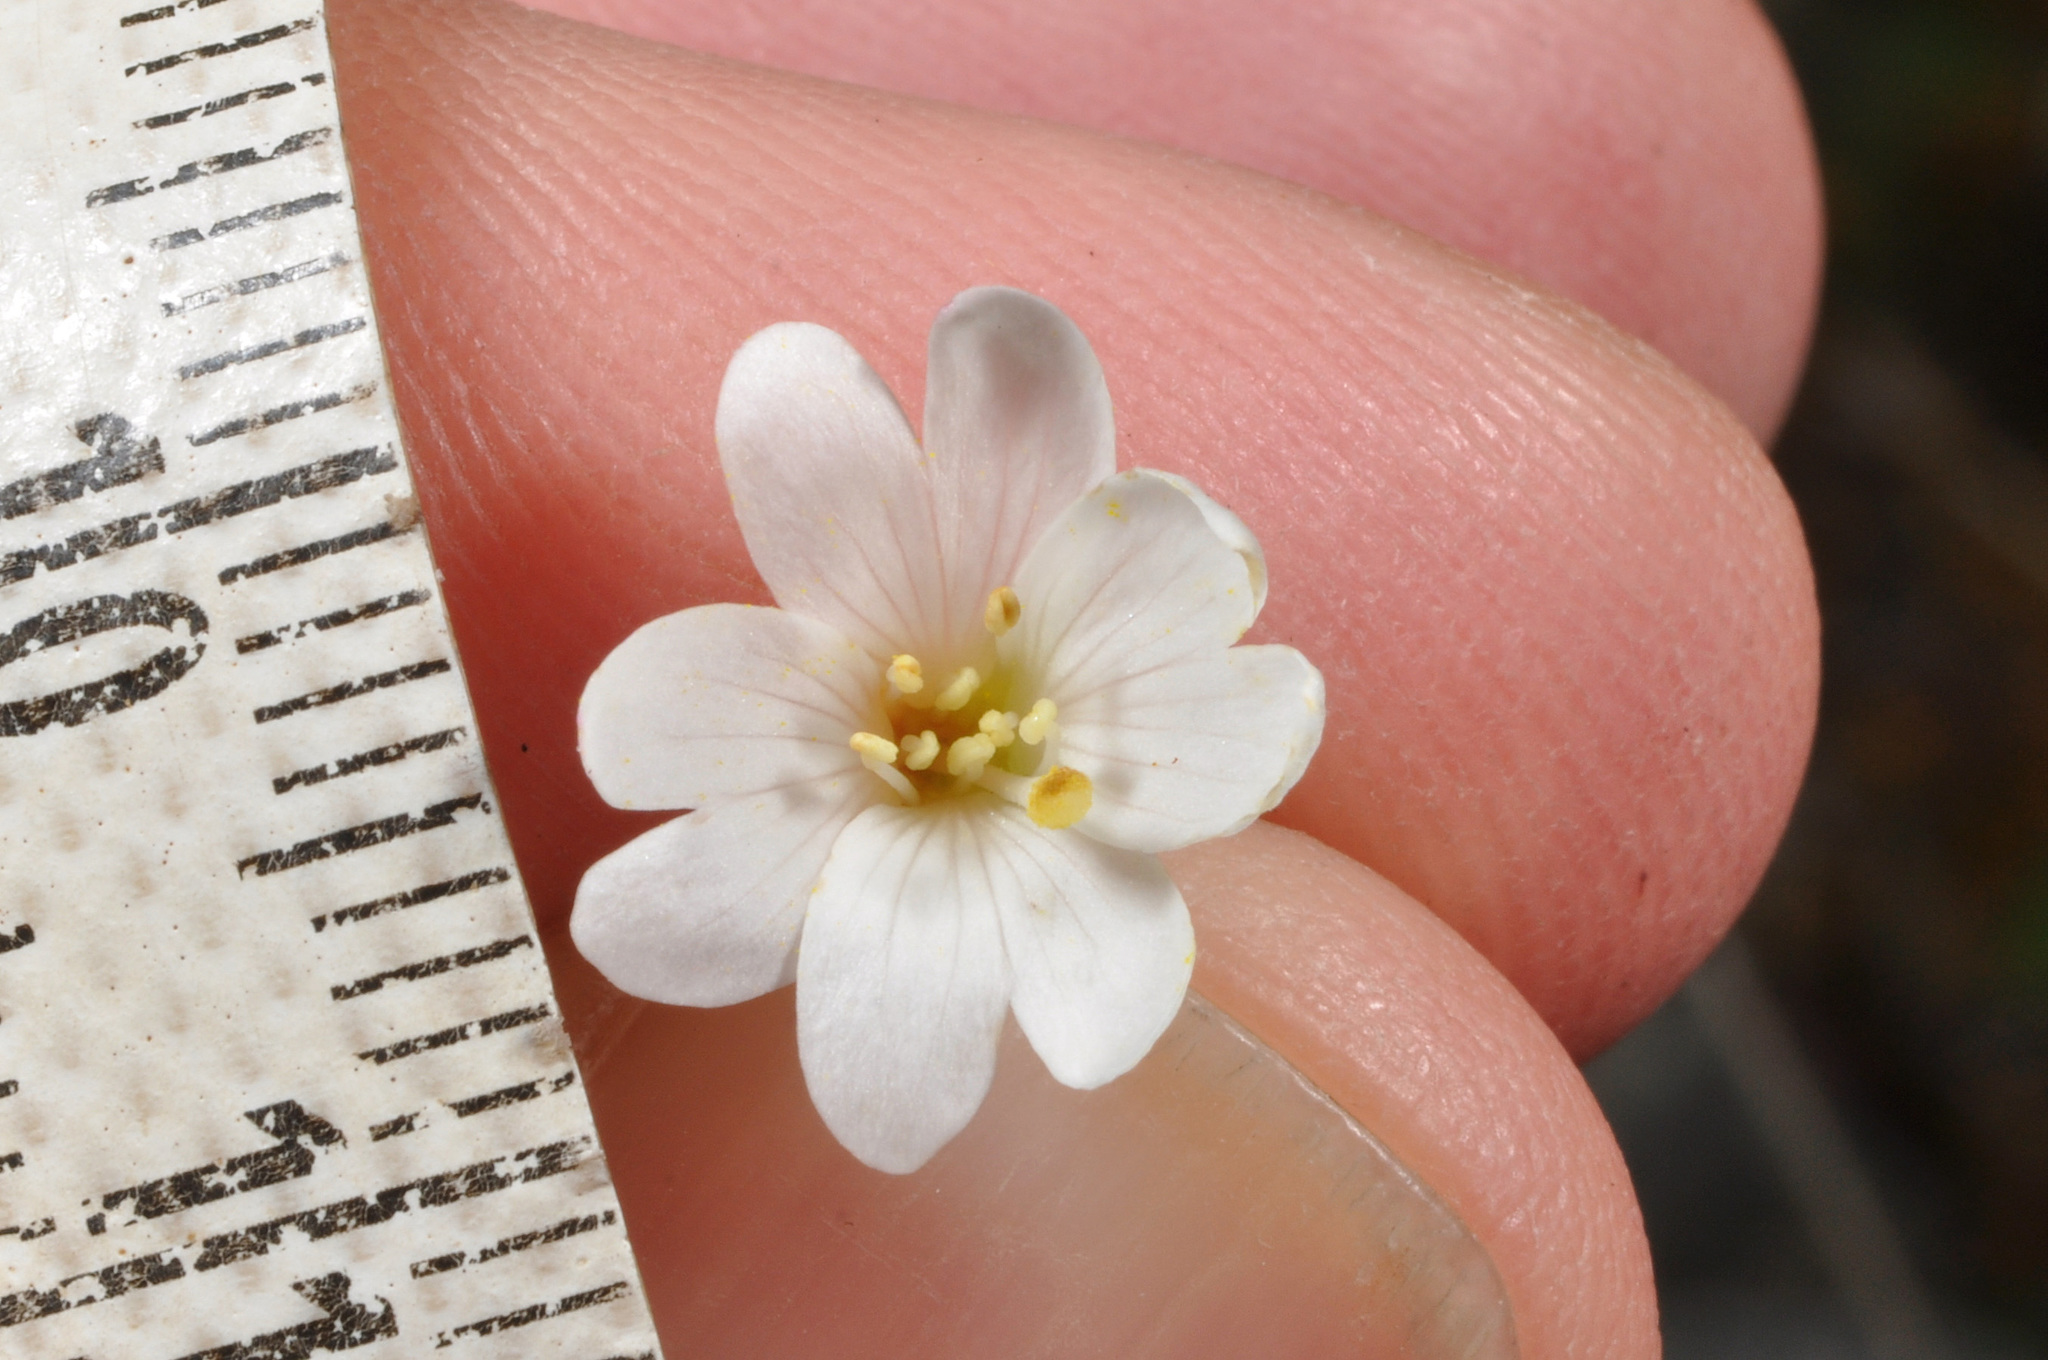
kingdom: Plantae
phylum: Tracheophyta
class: Magnoliopsida
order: Myrtales
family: Onagraceae
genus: Epilobium
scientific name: Epilobium chlorifolium
